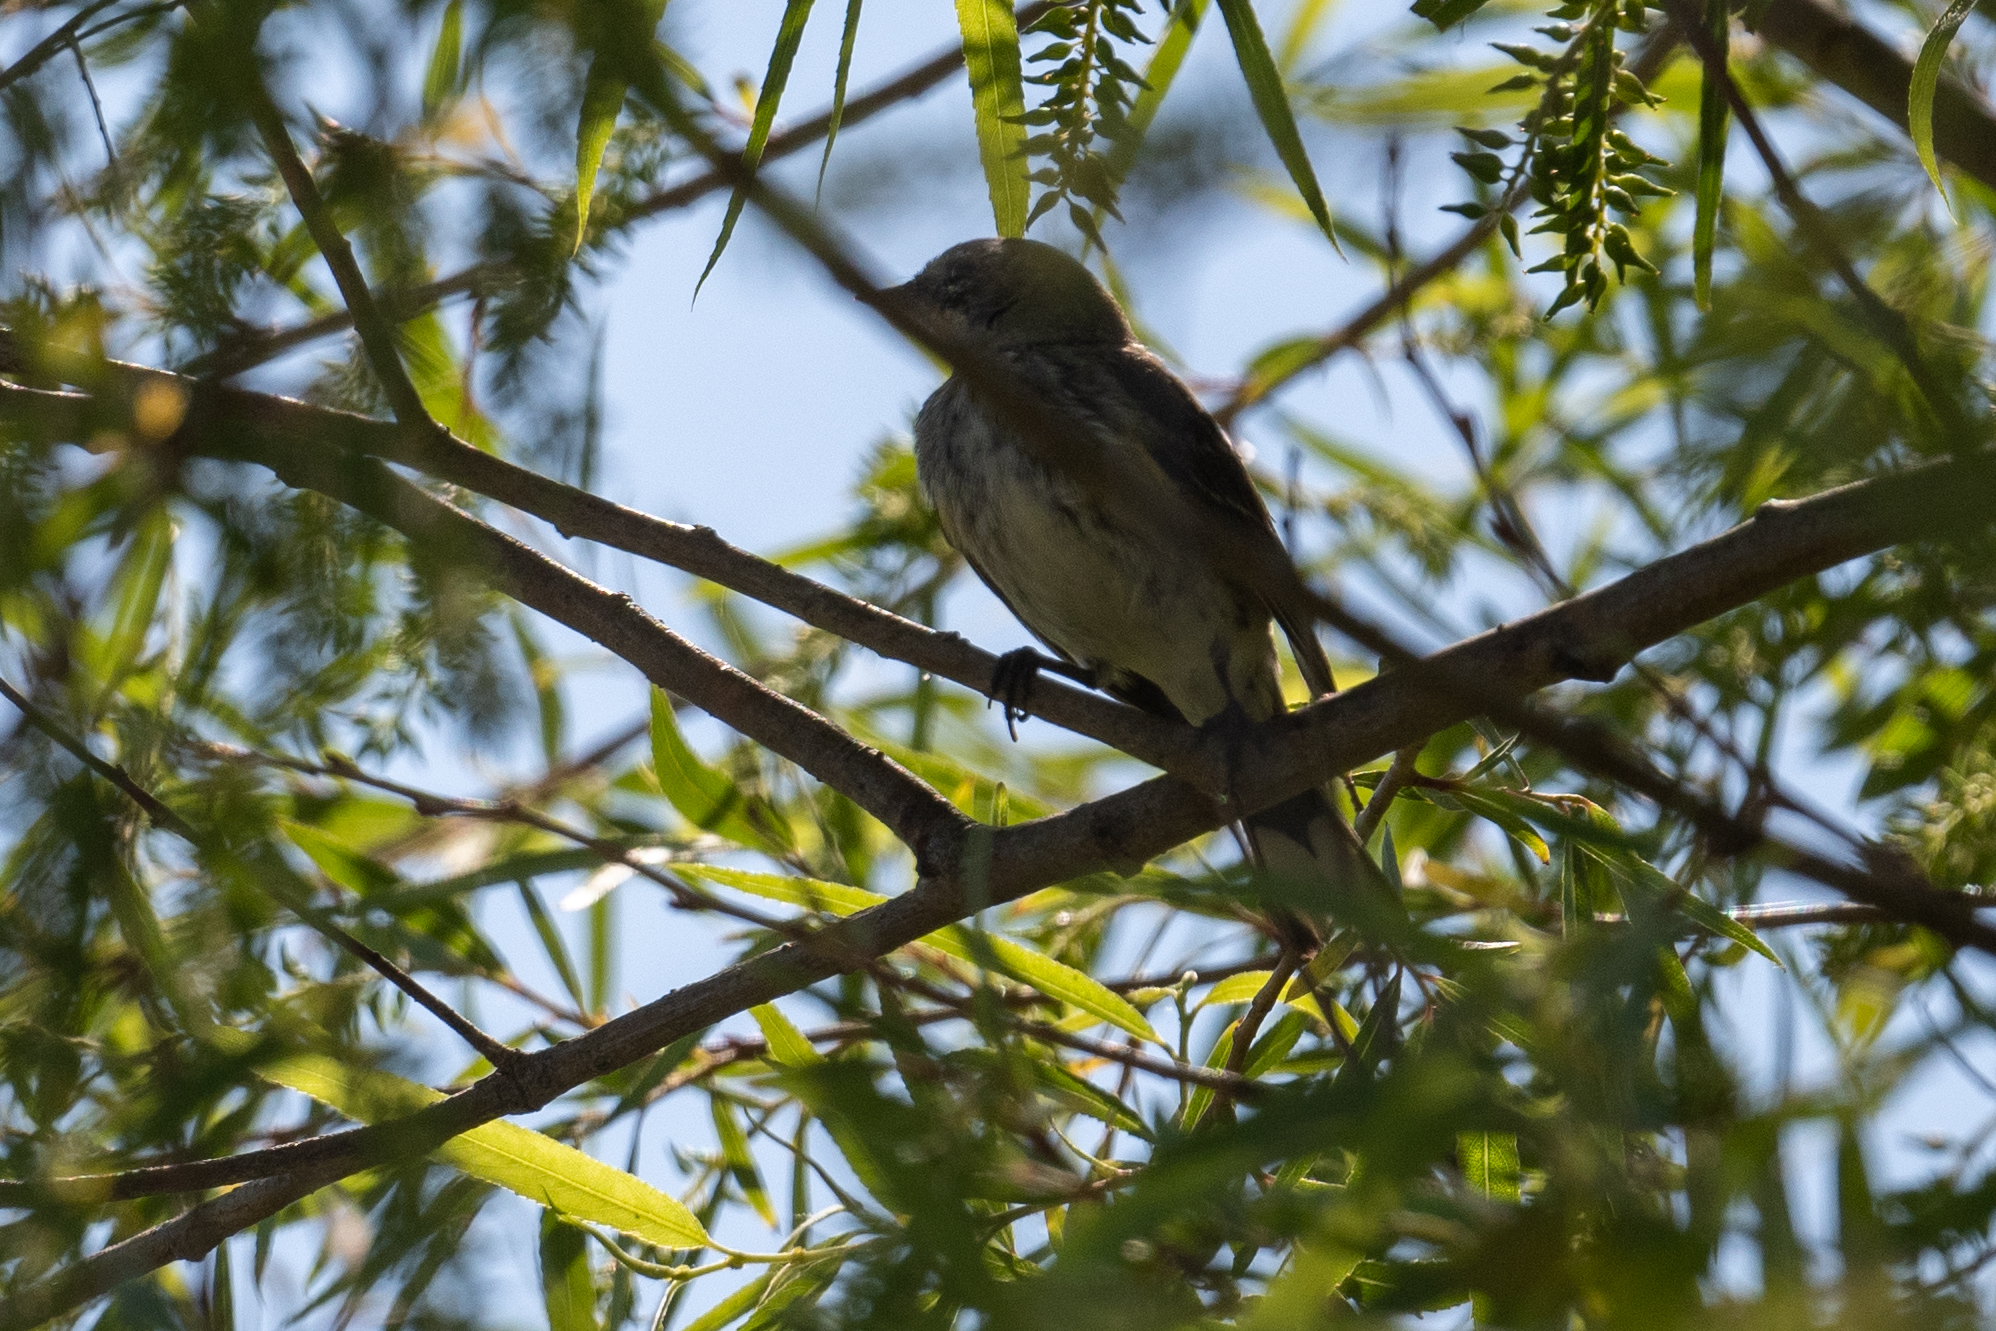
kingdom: Animalia
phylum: Chordata
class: Aves
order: Passeriformes
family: Parulidae
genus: Setophaga
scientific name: Setophaga coronata
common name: Myrtle warbler
